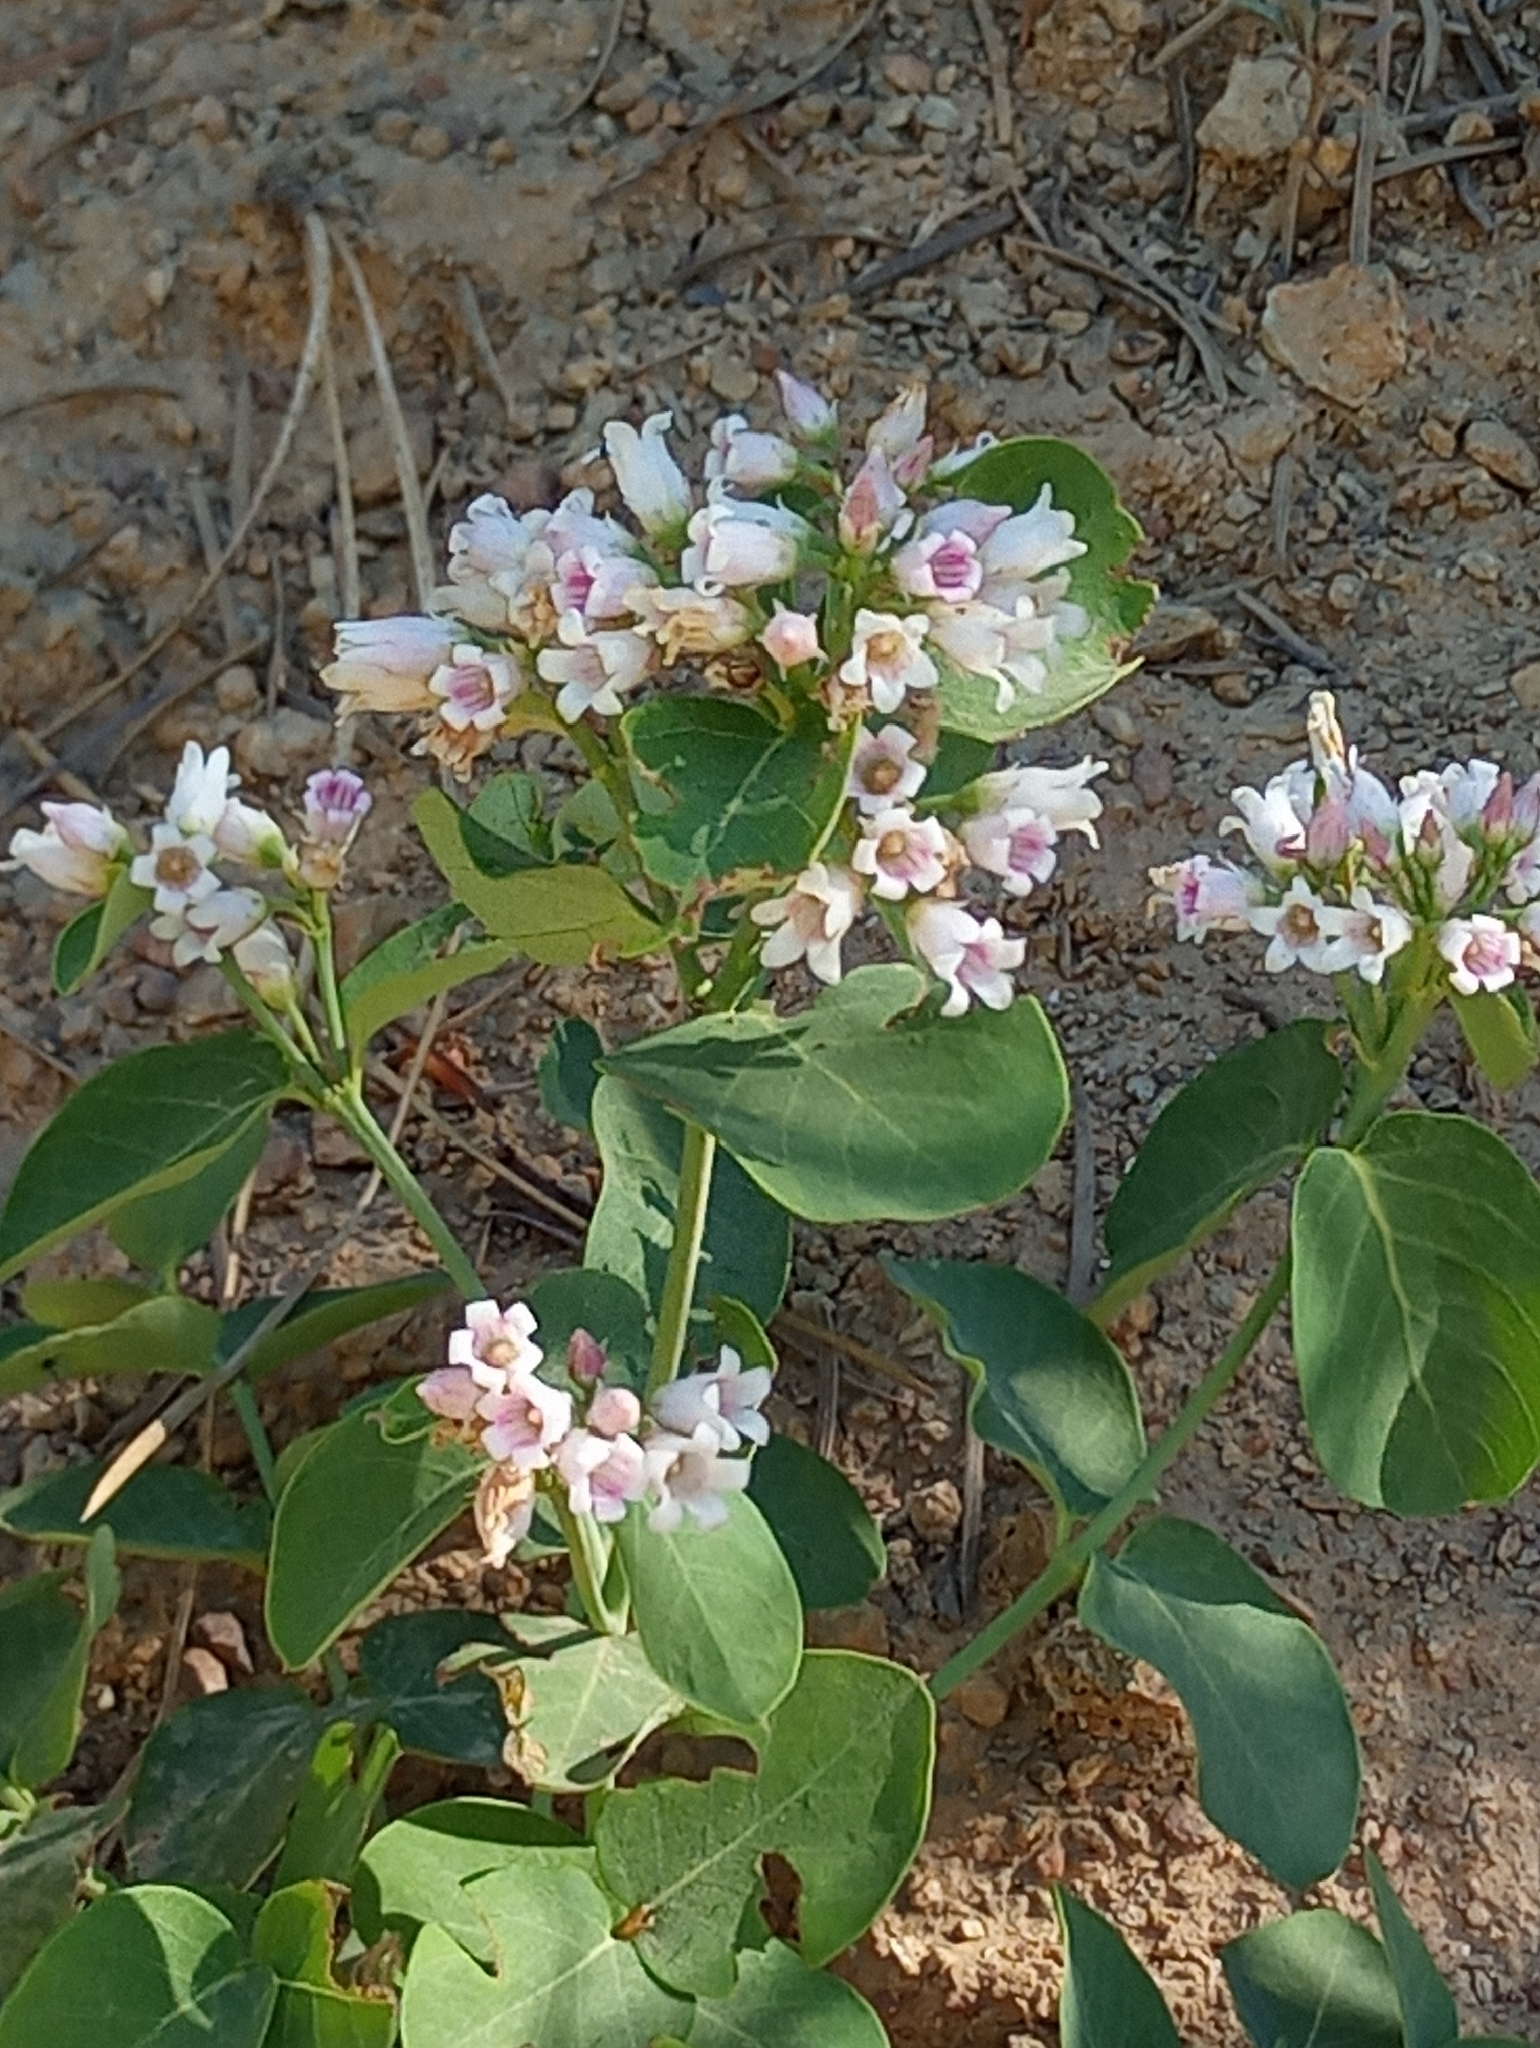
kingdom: Plantae
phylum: Tracheophyta
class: Magnoliopsida
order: Gentianales
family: Apocynaceae
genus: Apocynum
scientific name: Apocynum androsaemifolium
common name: Spreading dogbane
